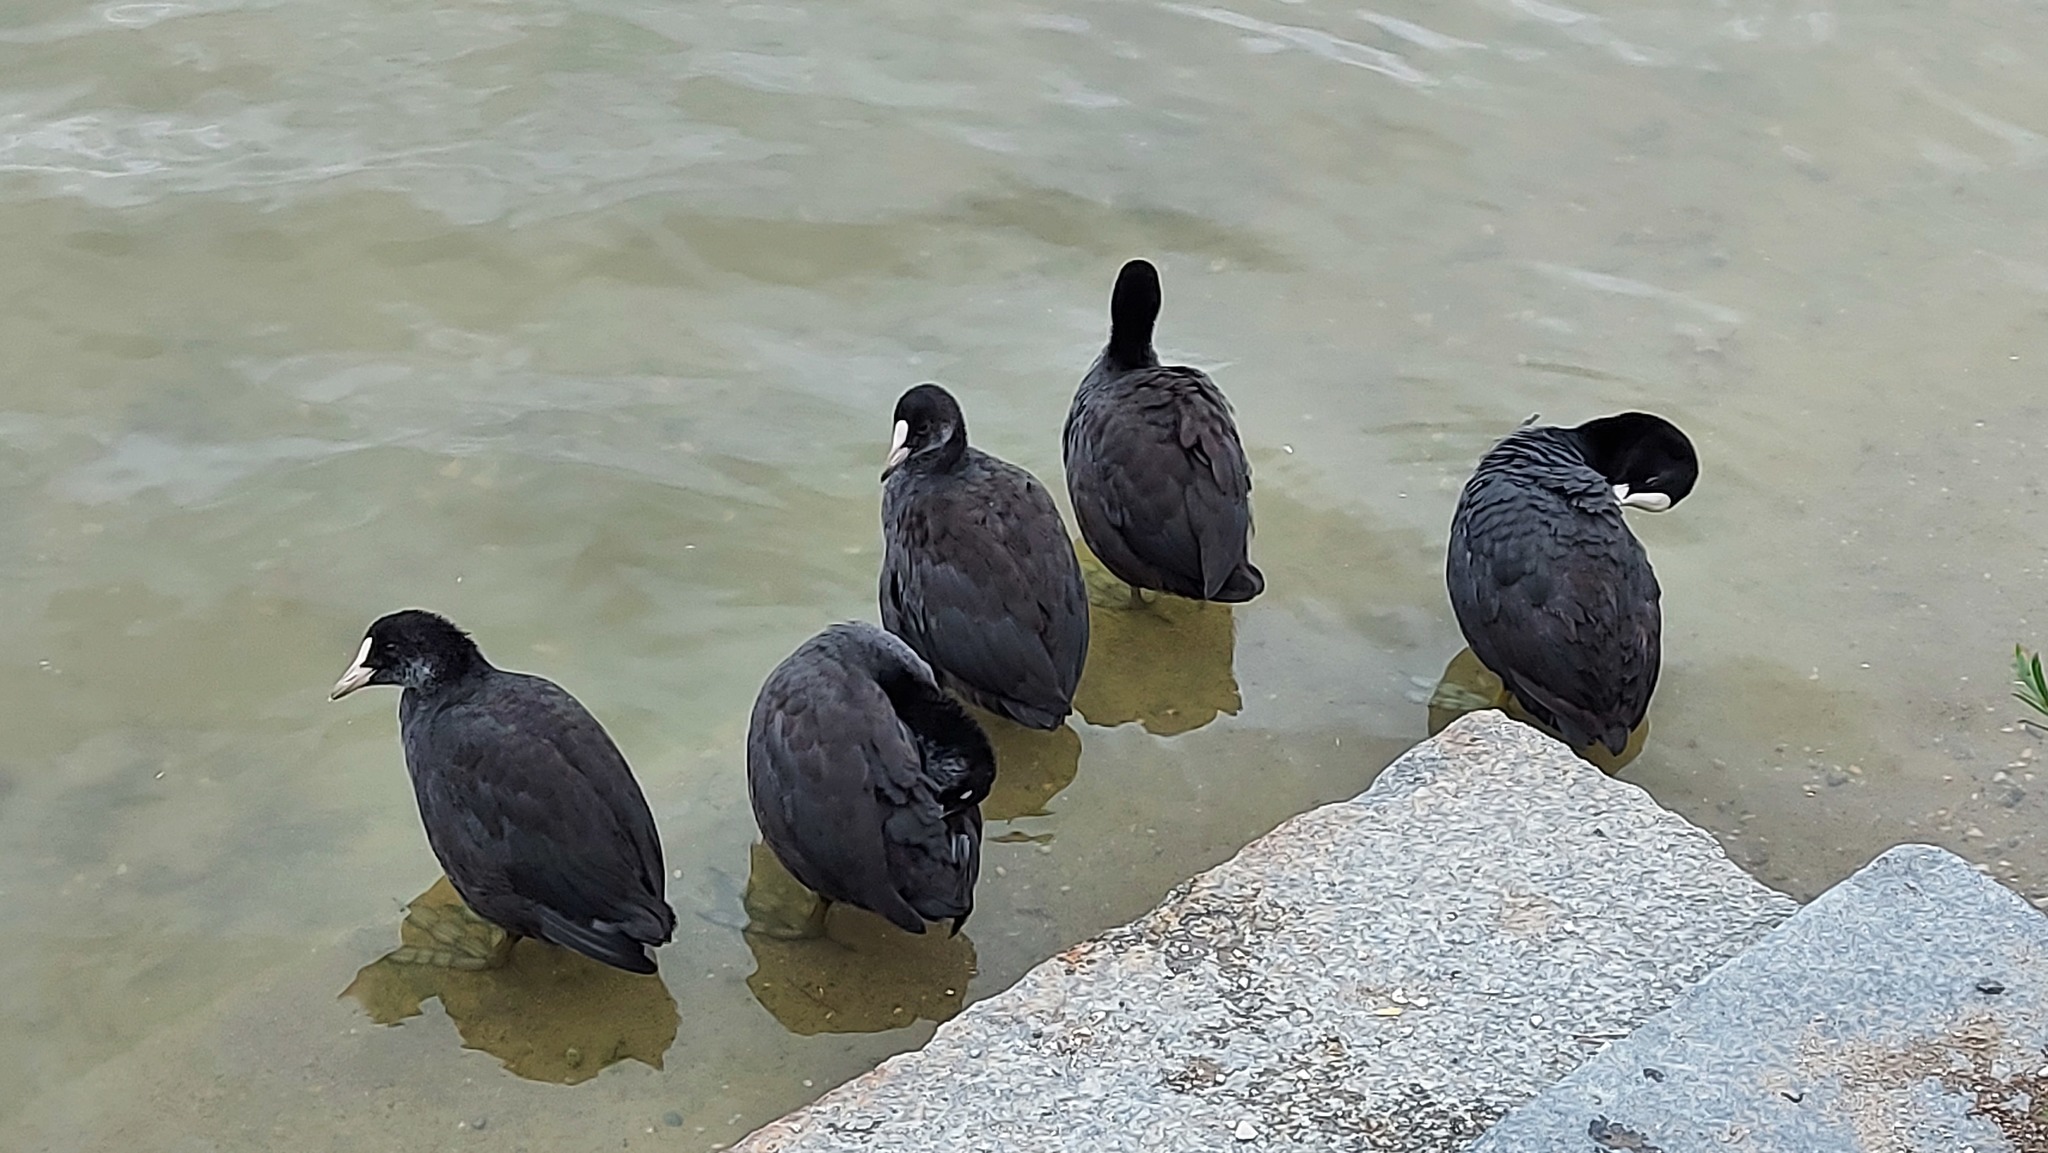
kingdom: Animalia
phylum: Chordata
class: Aves
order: Gruiformes
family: Rallidae
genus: Fulica
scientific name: Fulica atra
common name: Eurasian coot
